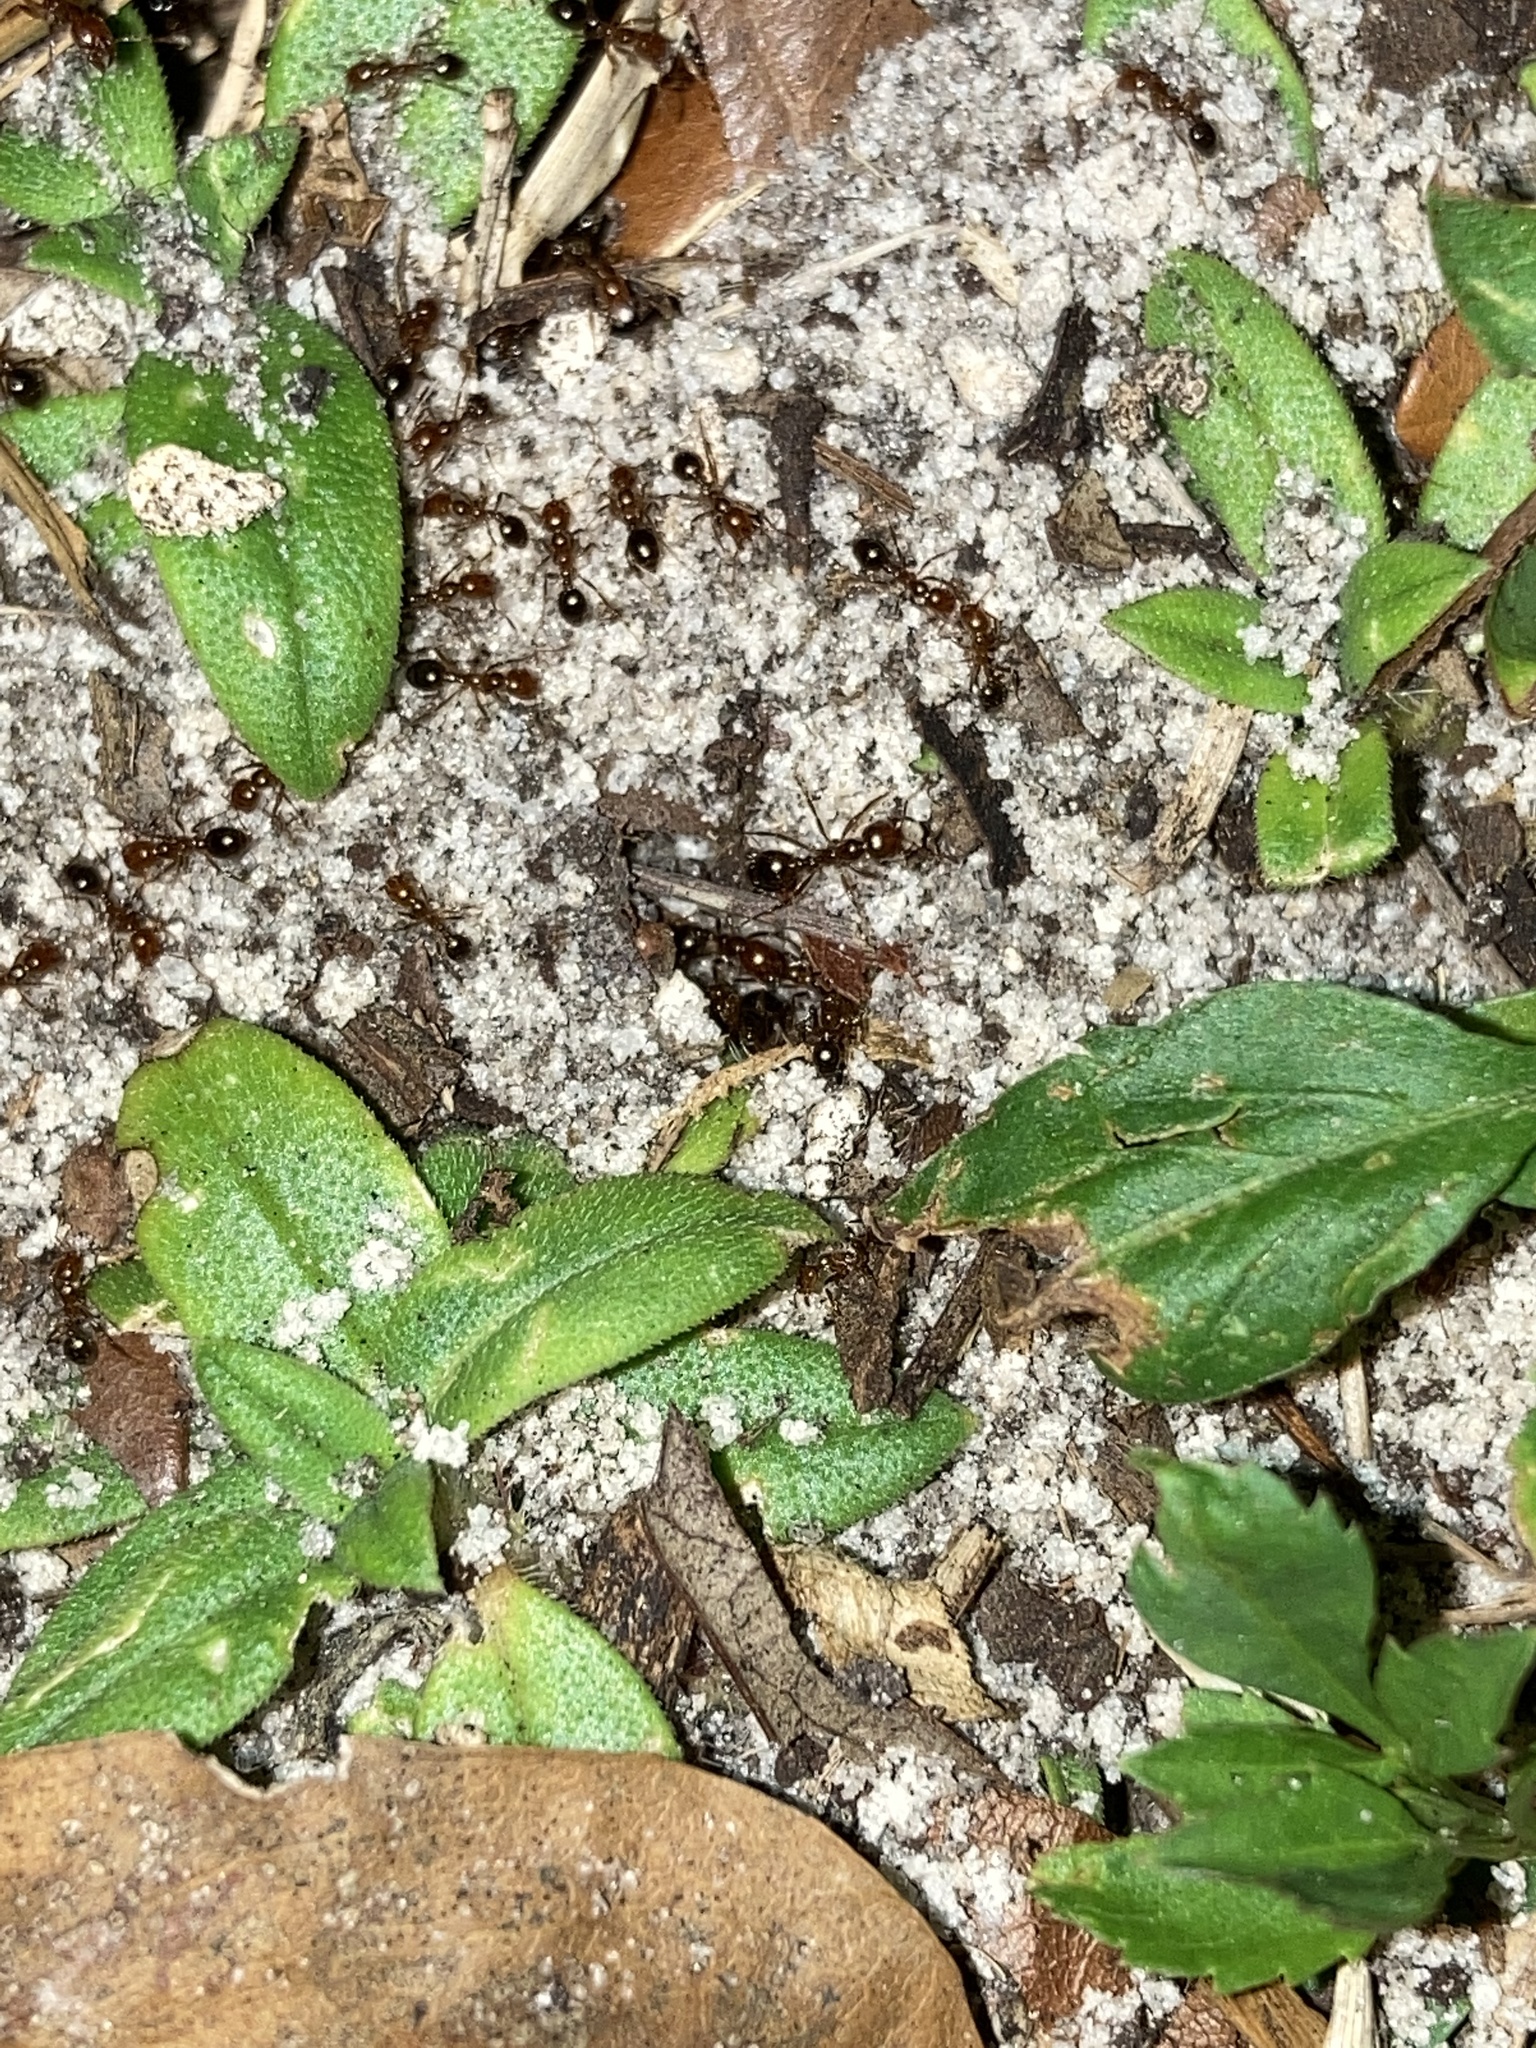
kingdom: Animalia
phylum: Arthropoda
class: Insecta
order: Hymenoptera
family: Formicidae
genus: Solenopsis
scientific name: Solenopsis invicta
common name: Red imported fire ant
